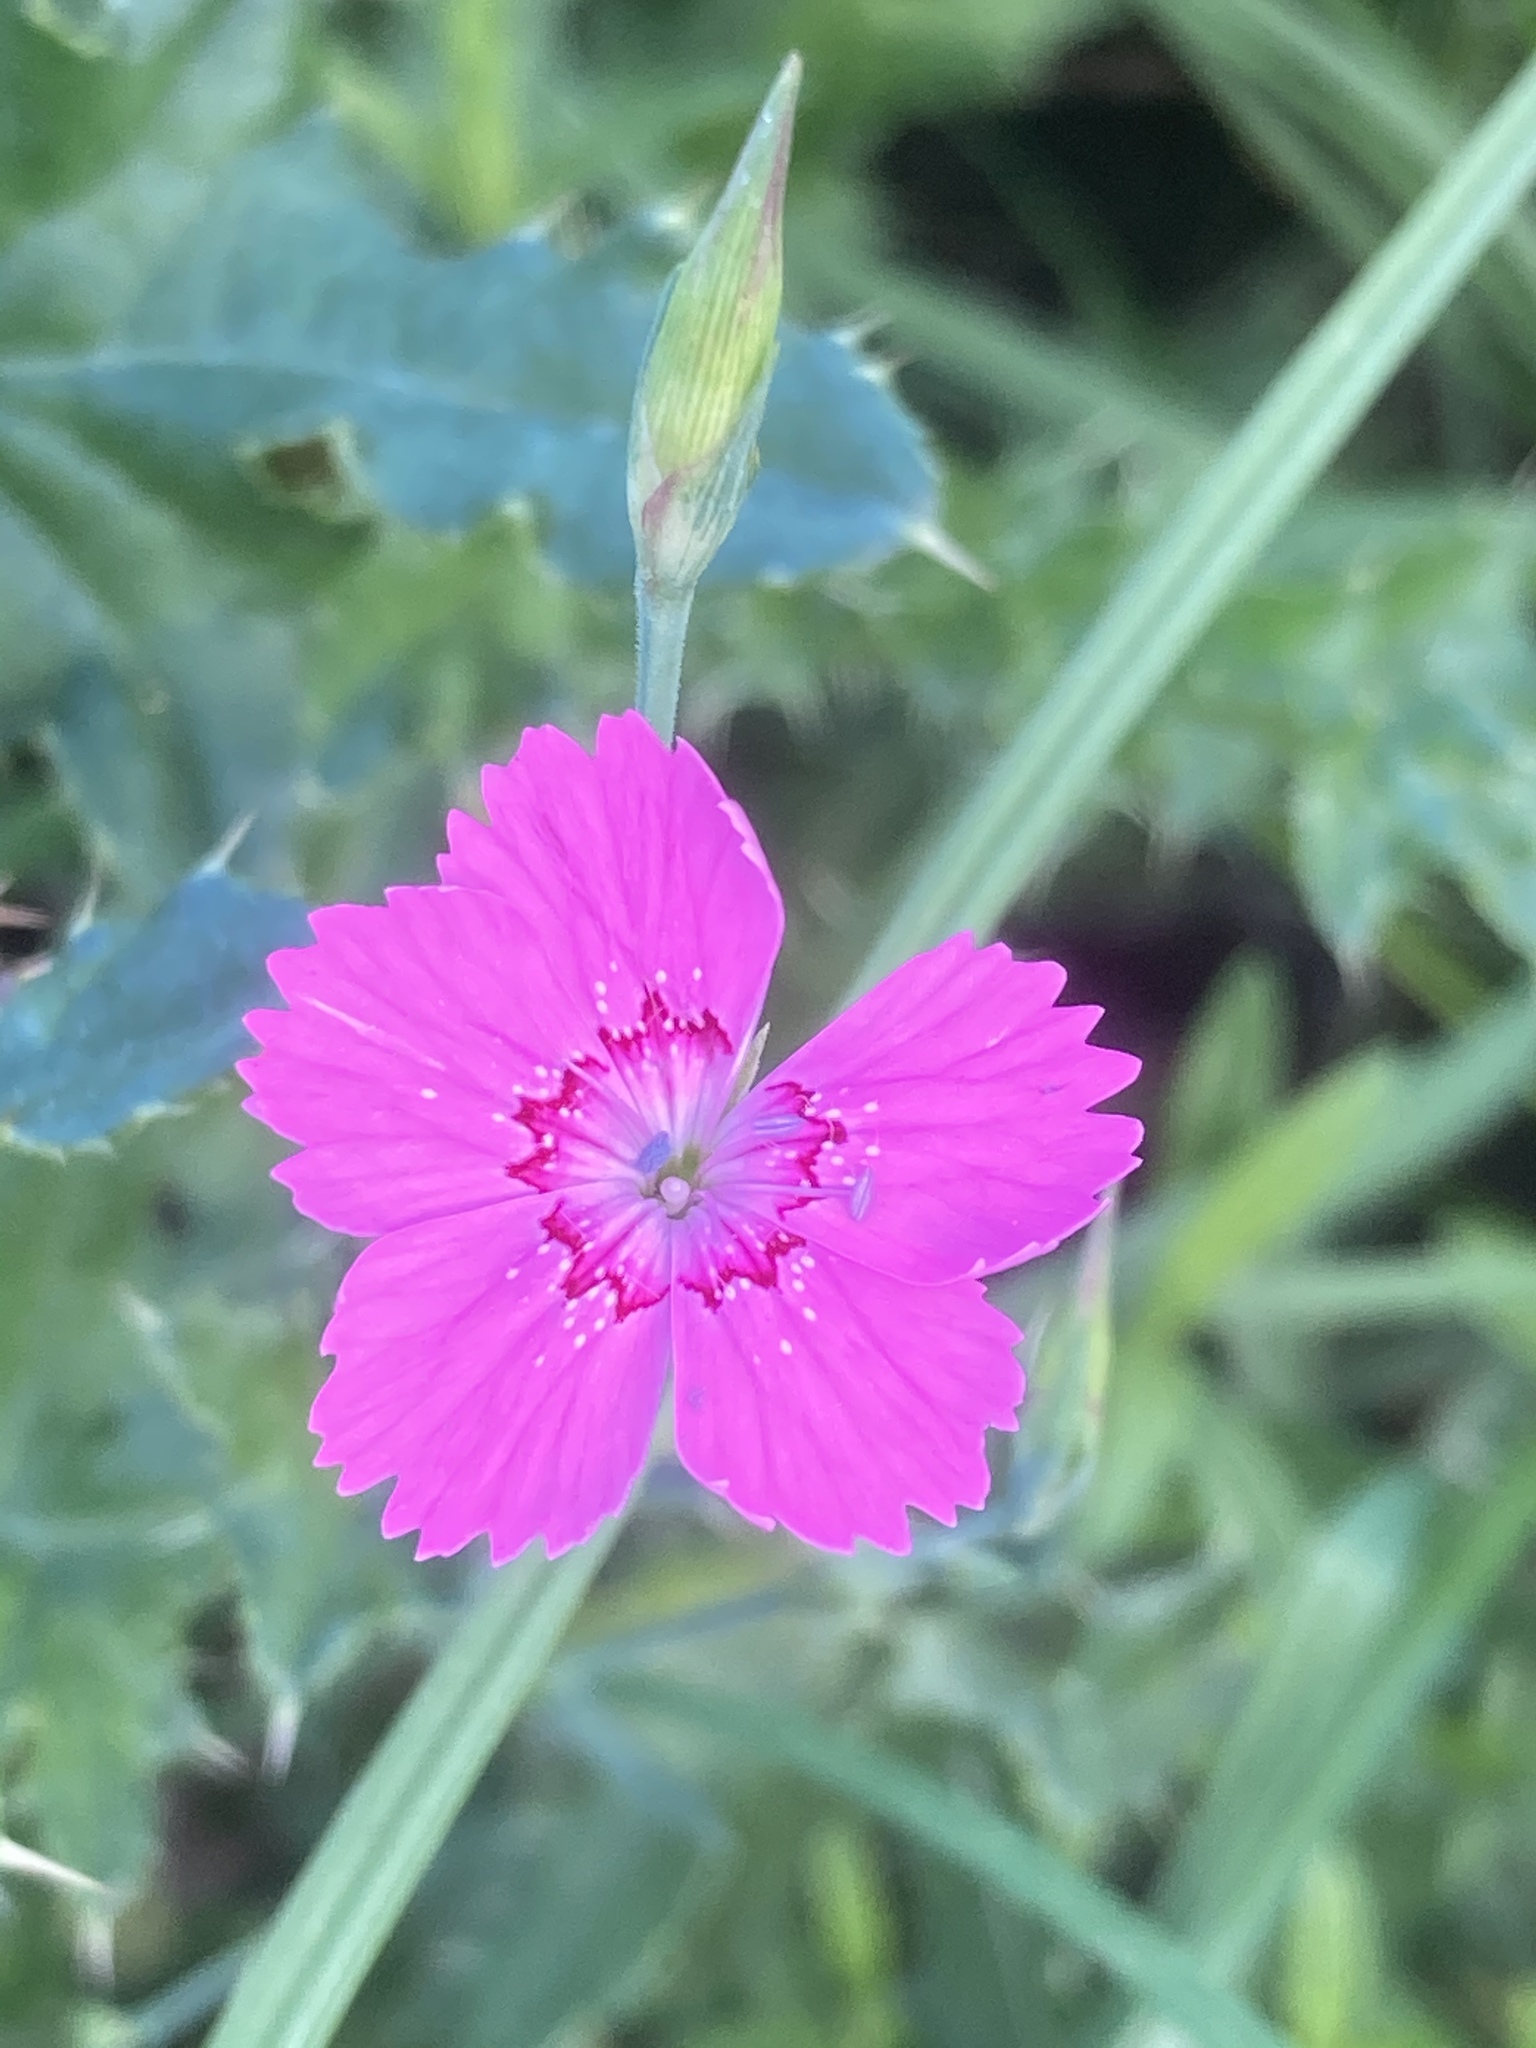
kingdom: Plantae
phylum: Tracheophyta
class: Magnoliopsida
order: Caryophyllales
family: Caryophyllaceae
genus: Dianthus
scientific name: Dianthus deltoides
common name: Maiden pink
